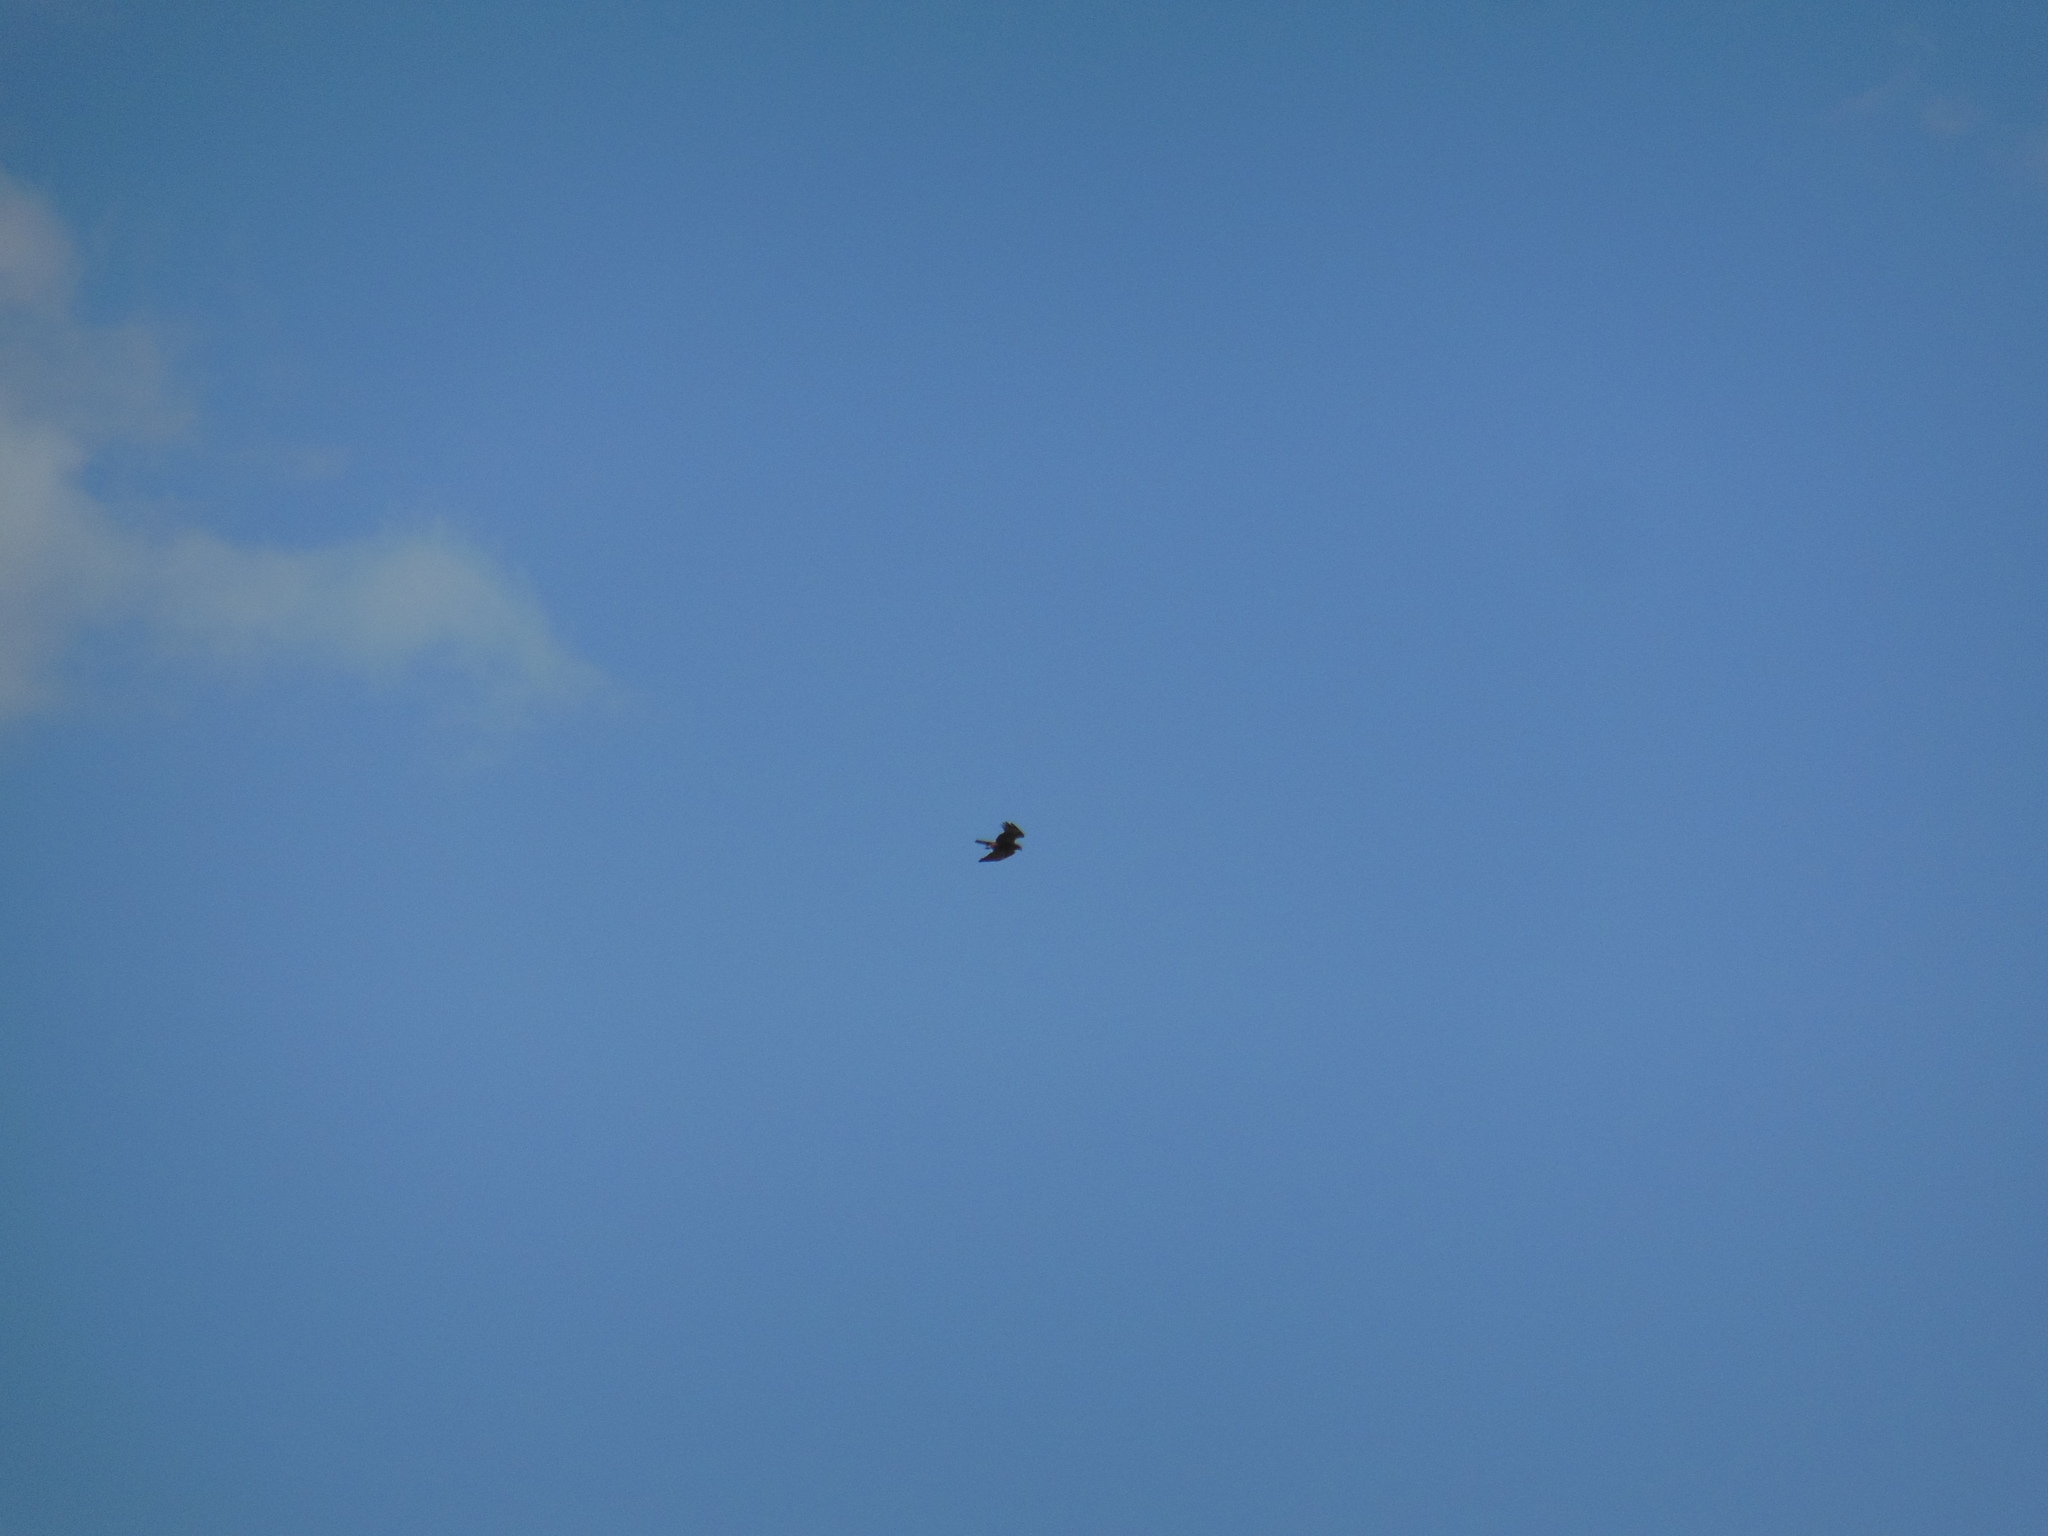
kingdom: Animalia
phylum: Chordata
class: Aves
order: Accipitriformes
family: Accipitridae
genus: Circus
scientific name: Circus aeruginosus
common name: Western marsh harrier
